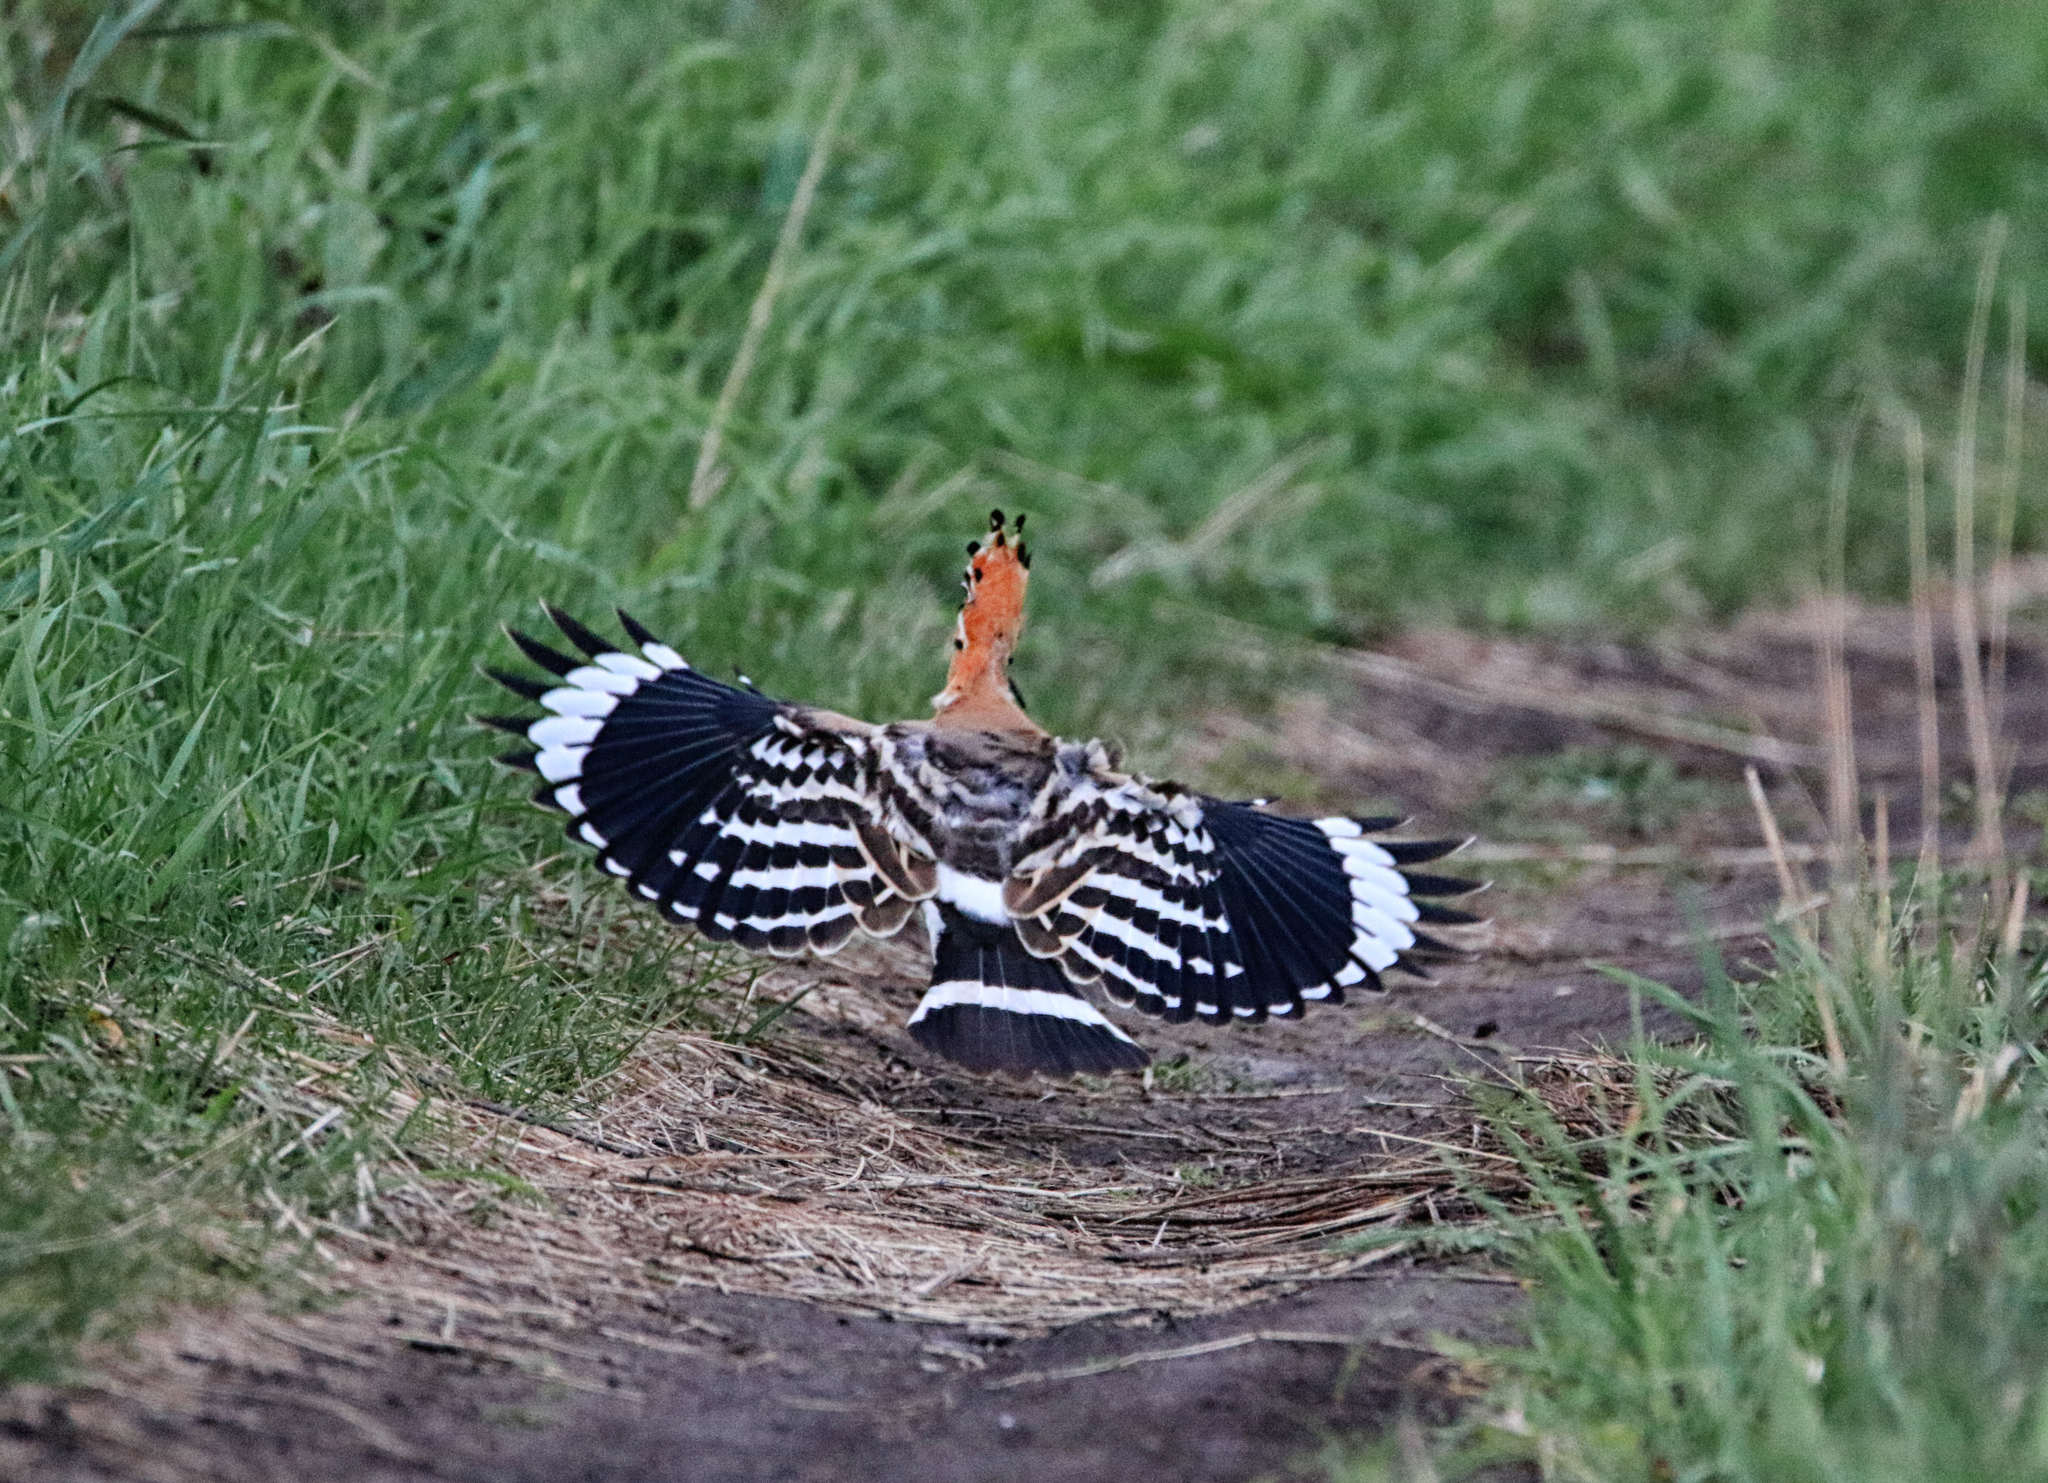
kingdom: Animalia
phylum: Chordata
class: Aves
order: Bucerotiformes
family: Upupidae
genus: Upupa
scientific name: Upupa epops
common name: Eurasian hoopoe
